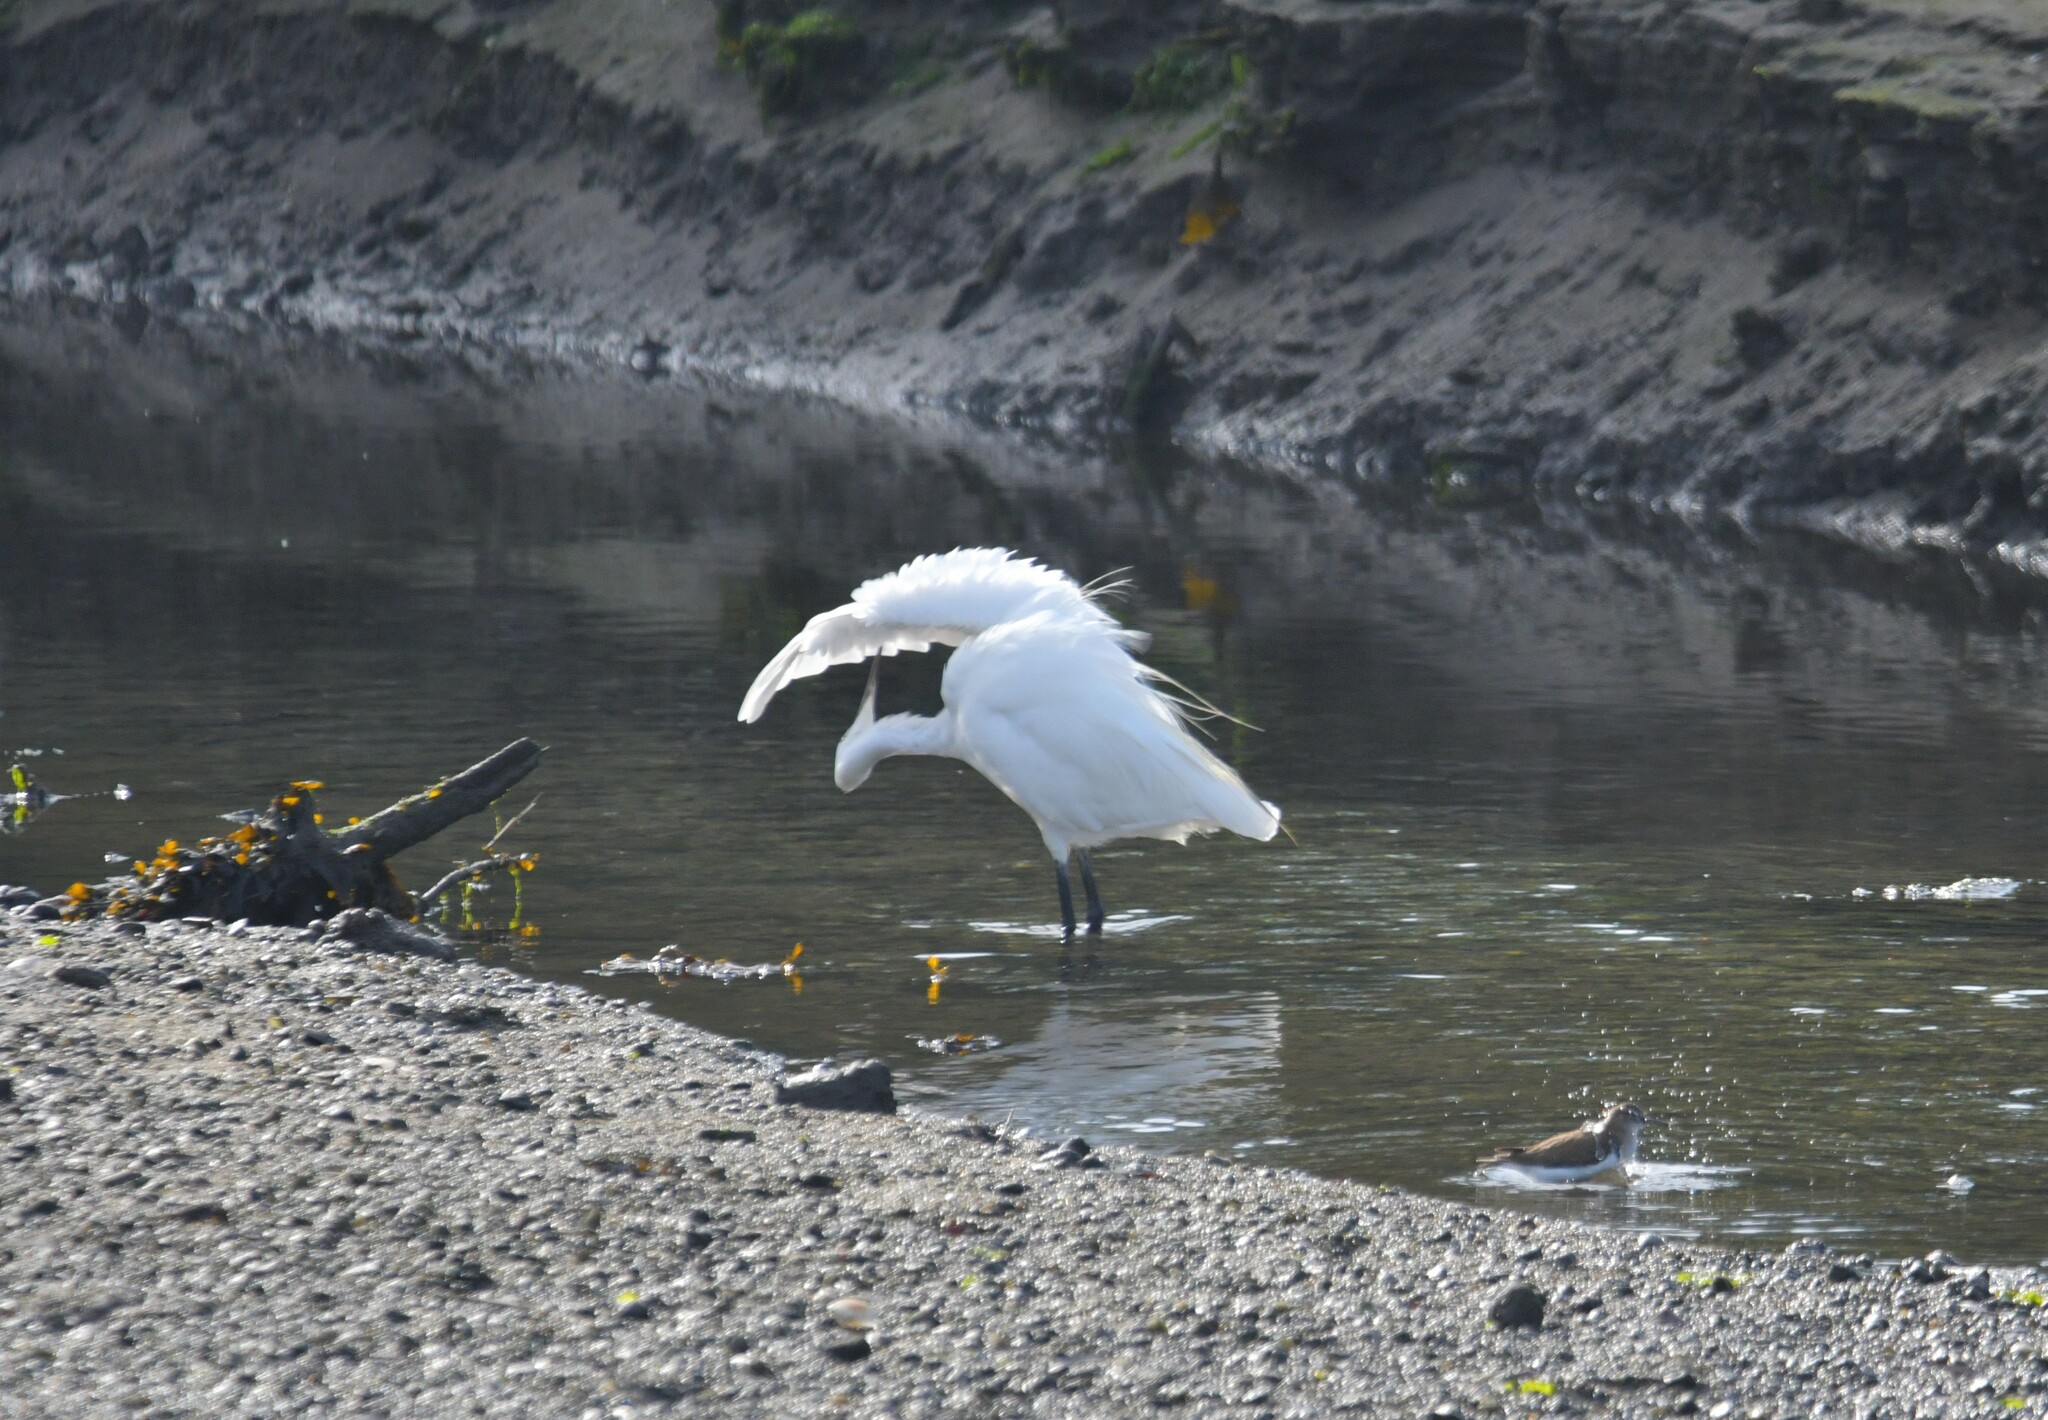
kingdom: Animalia
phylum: Chordata
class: Aves
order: Pelecaniformes
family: Ardeidae
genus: Egretta
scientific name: Egretta garzetta
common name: Little egret
